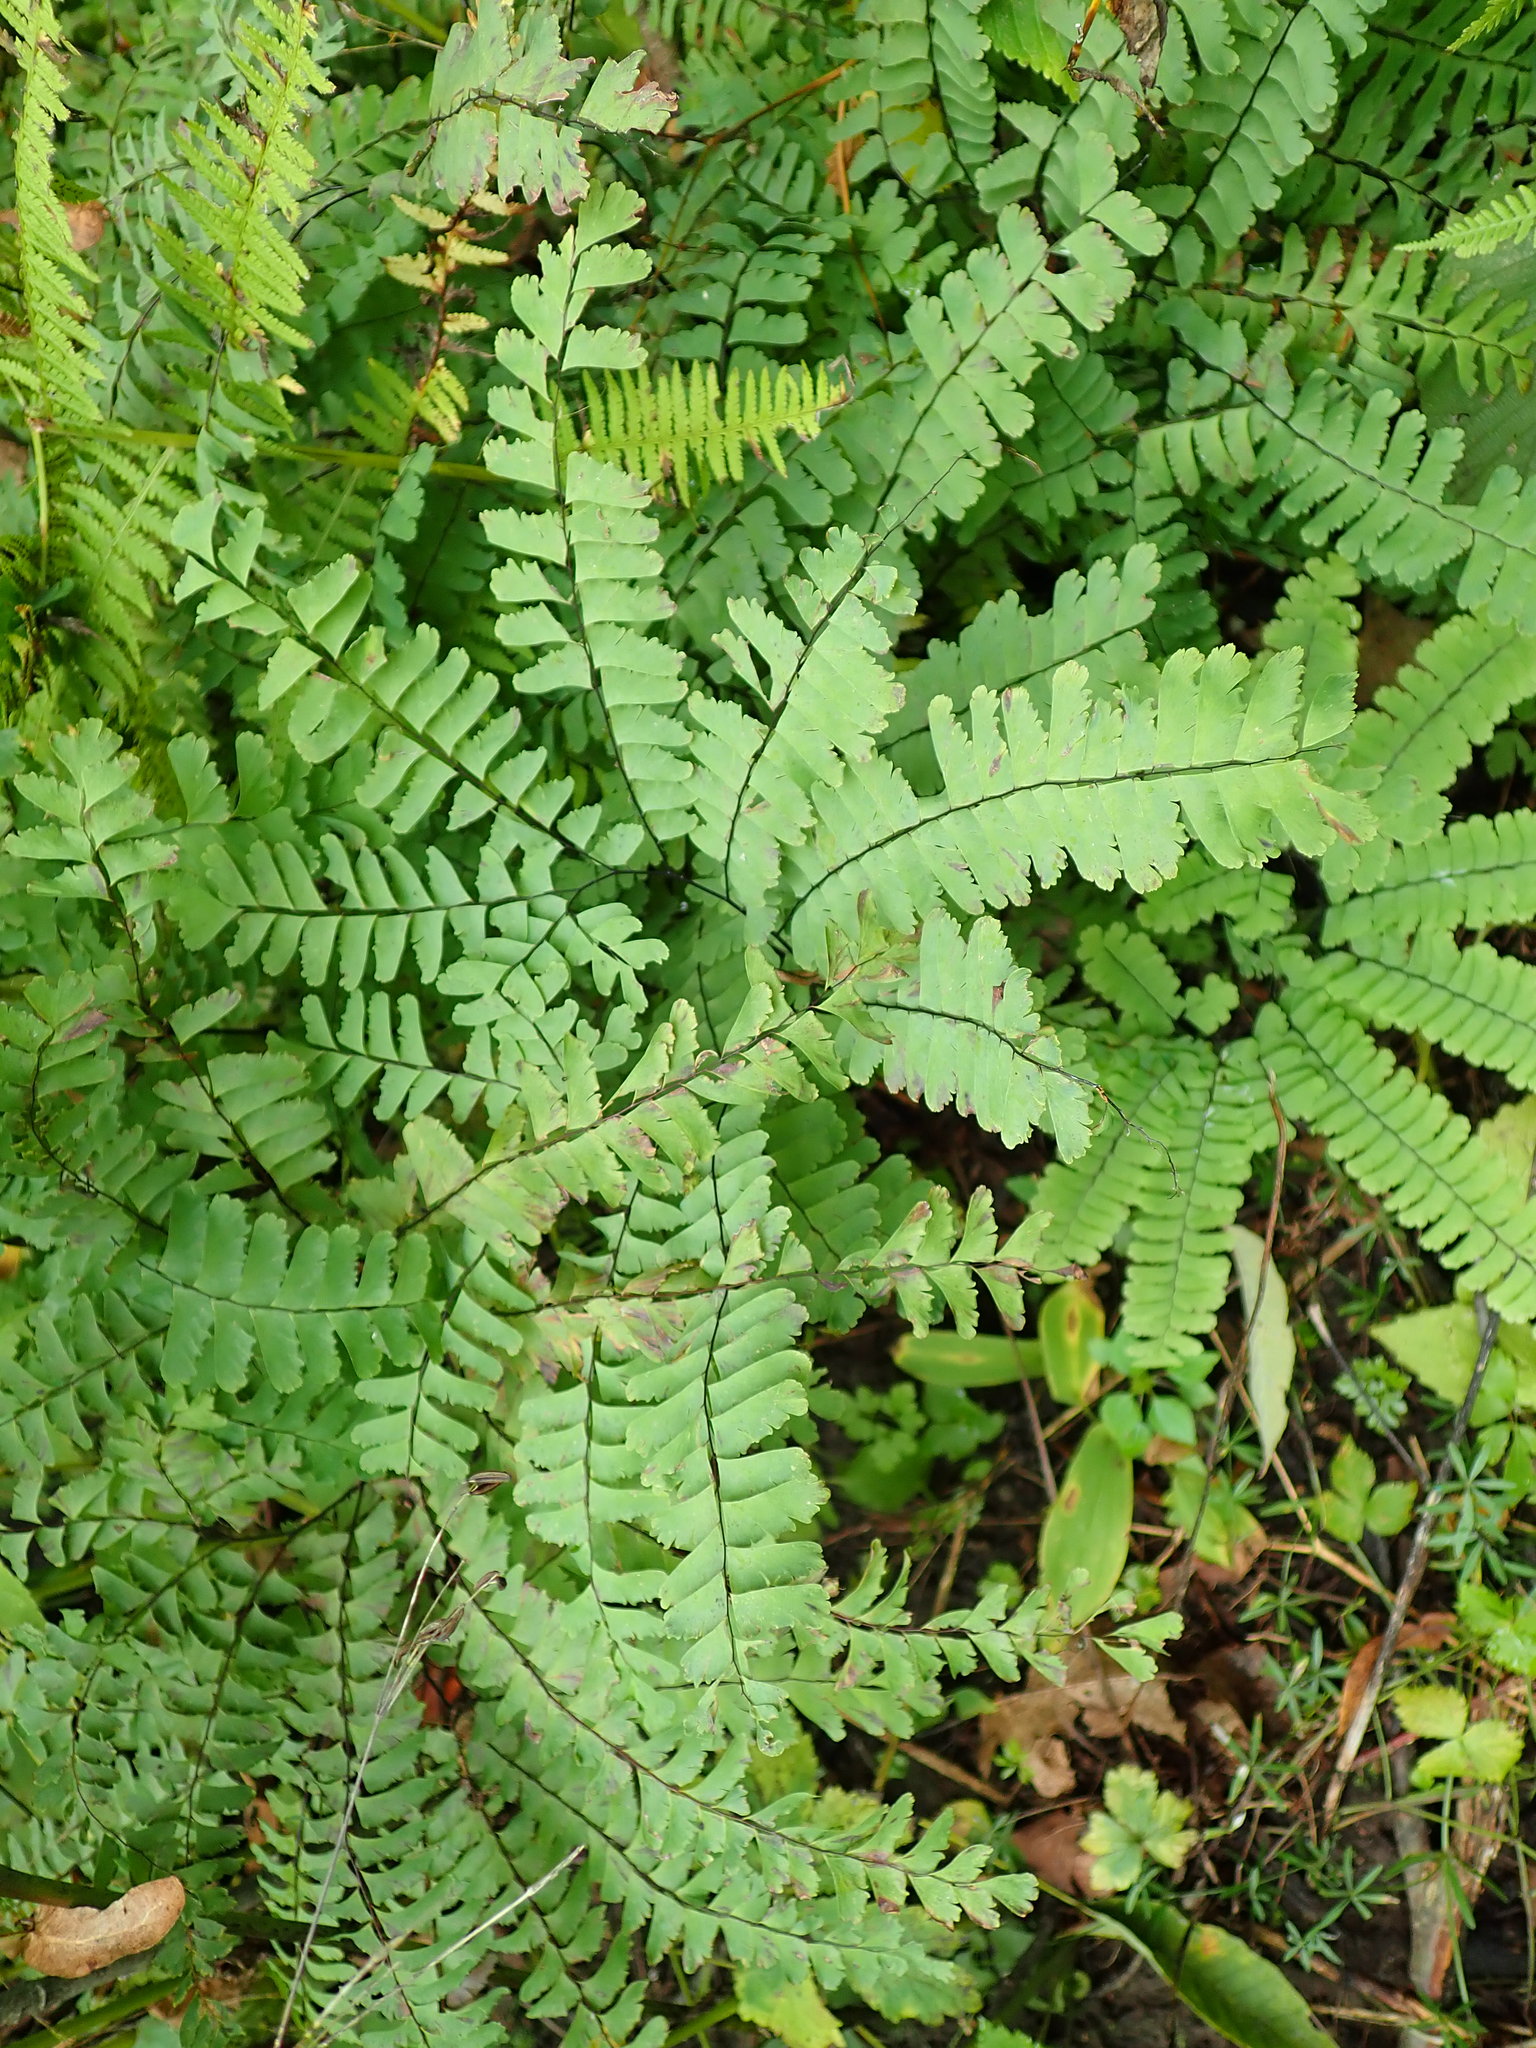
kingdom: Plantae
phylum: Tracheophyta
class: Polypodiopsida
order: Polypodiales
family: Pteridaceae
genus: Adiantum
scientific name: Adiantum pedatum
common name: Five-finger fern
